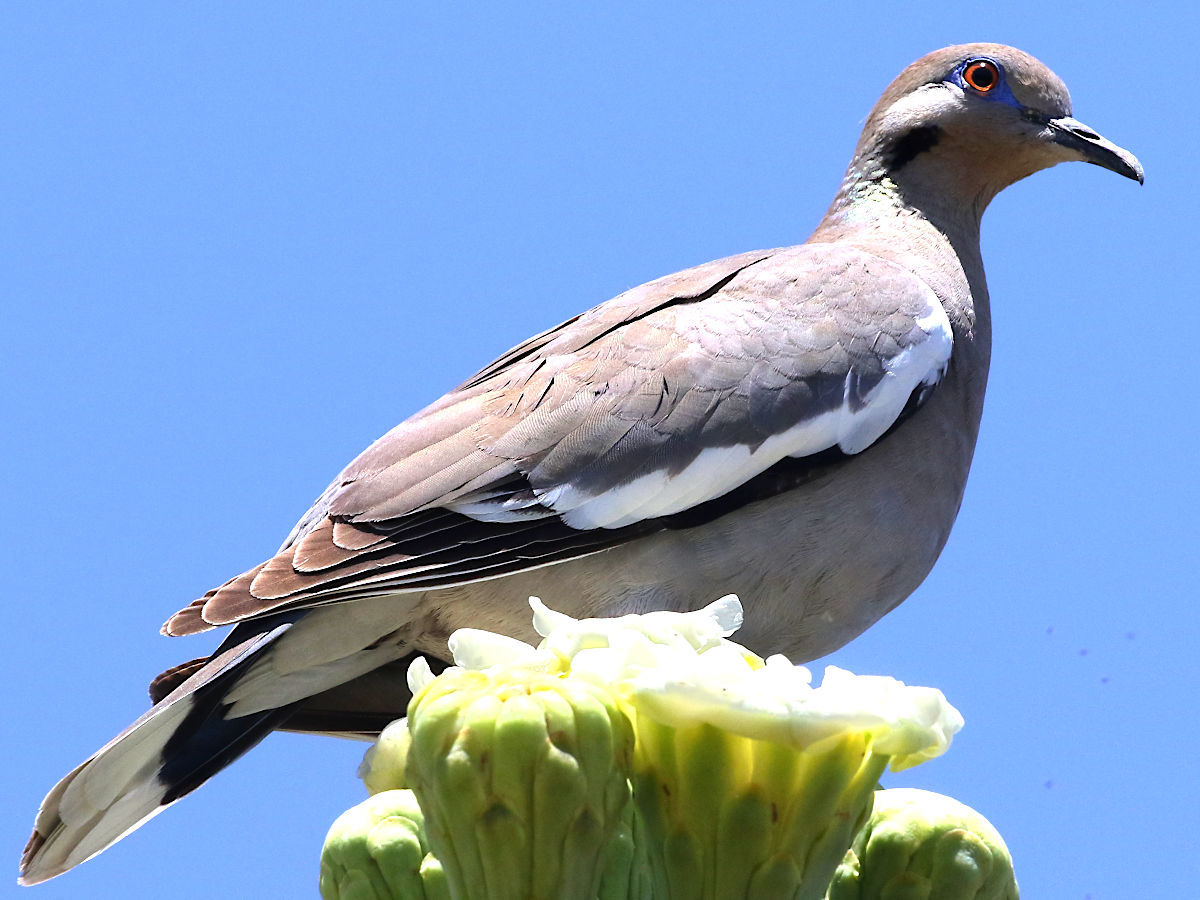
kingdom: Animalia
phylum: Chordata
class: Aves
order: Columbiformes
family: Columbidae
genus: Zenaida
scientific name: Zenaida asiatica
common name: White-winged dove
